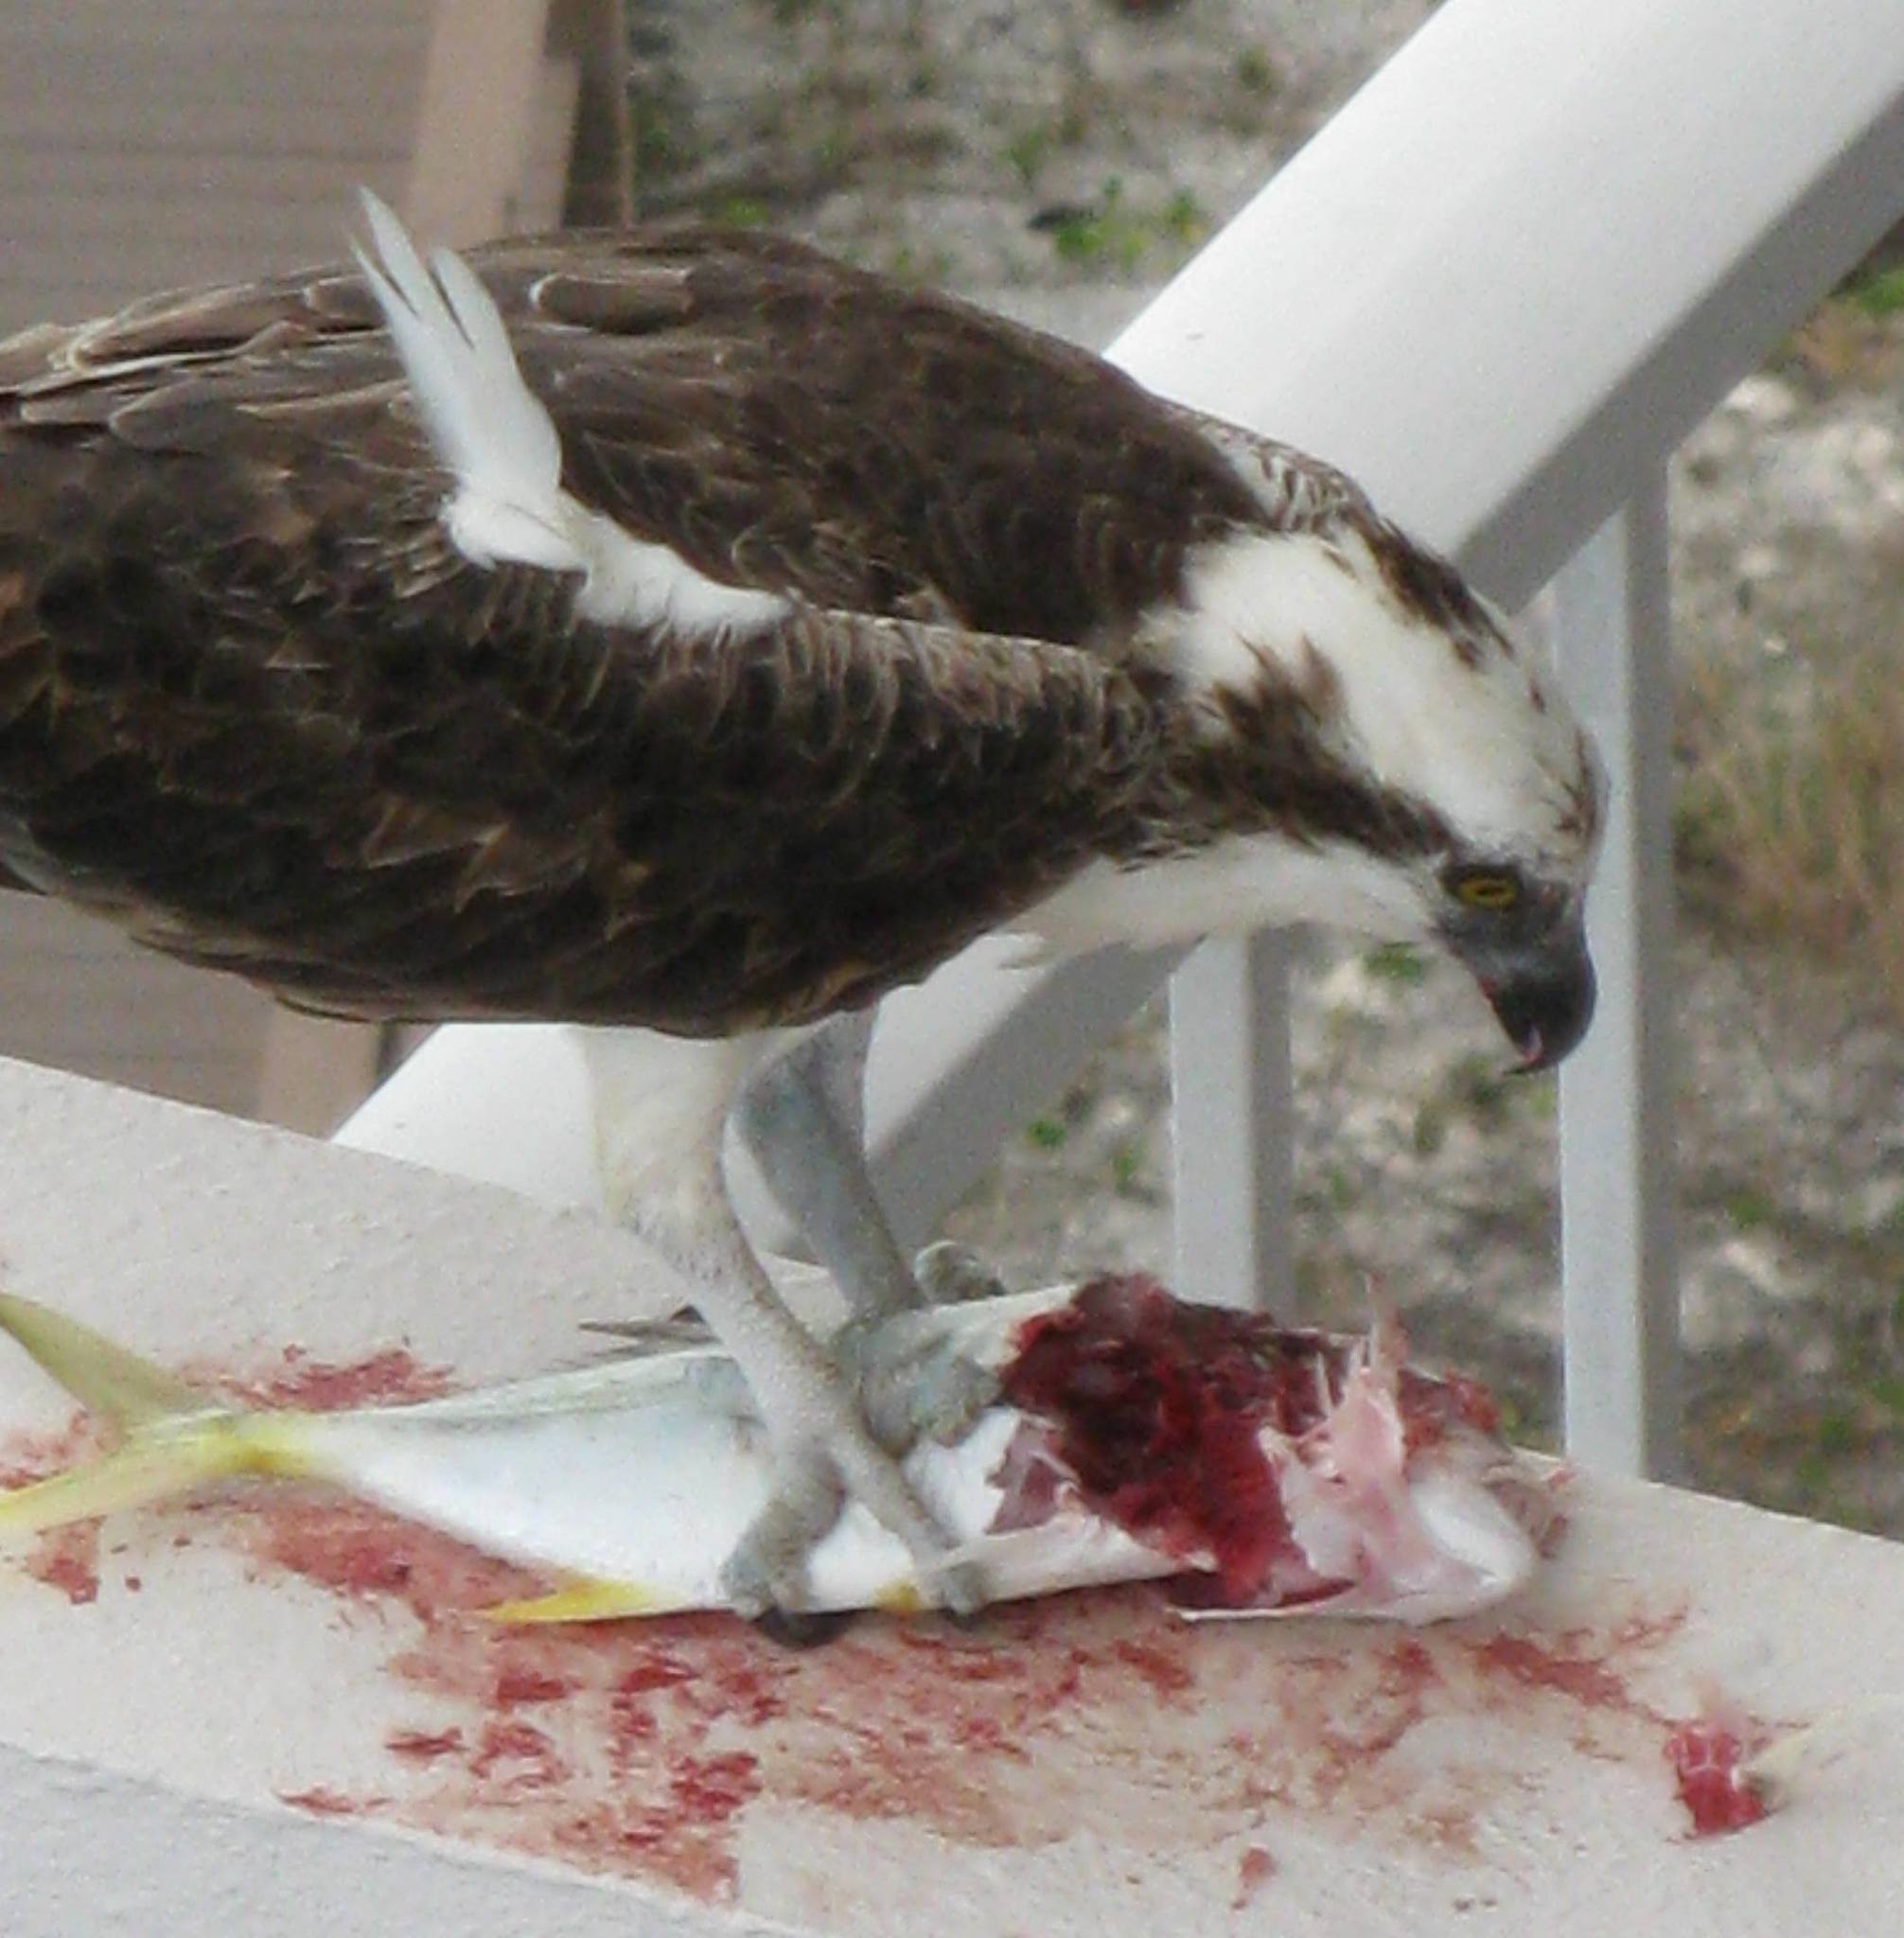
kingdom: Animalia
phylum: Chordata
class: Aves
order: Accipitriformes
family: Pandionidae
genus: Pandion
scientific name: Pandion haliaetus
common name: Osprey
